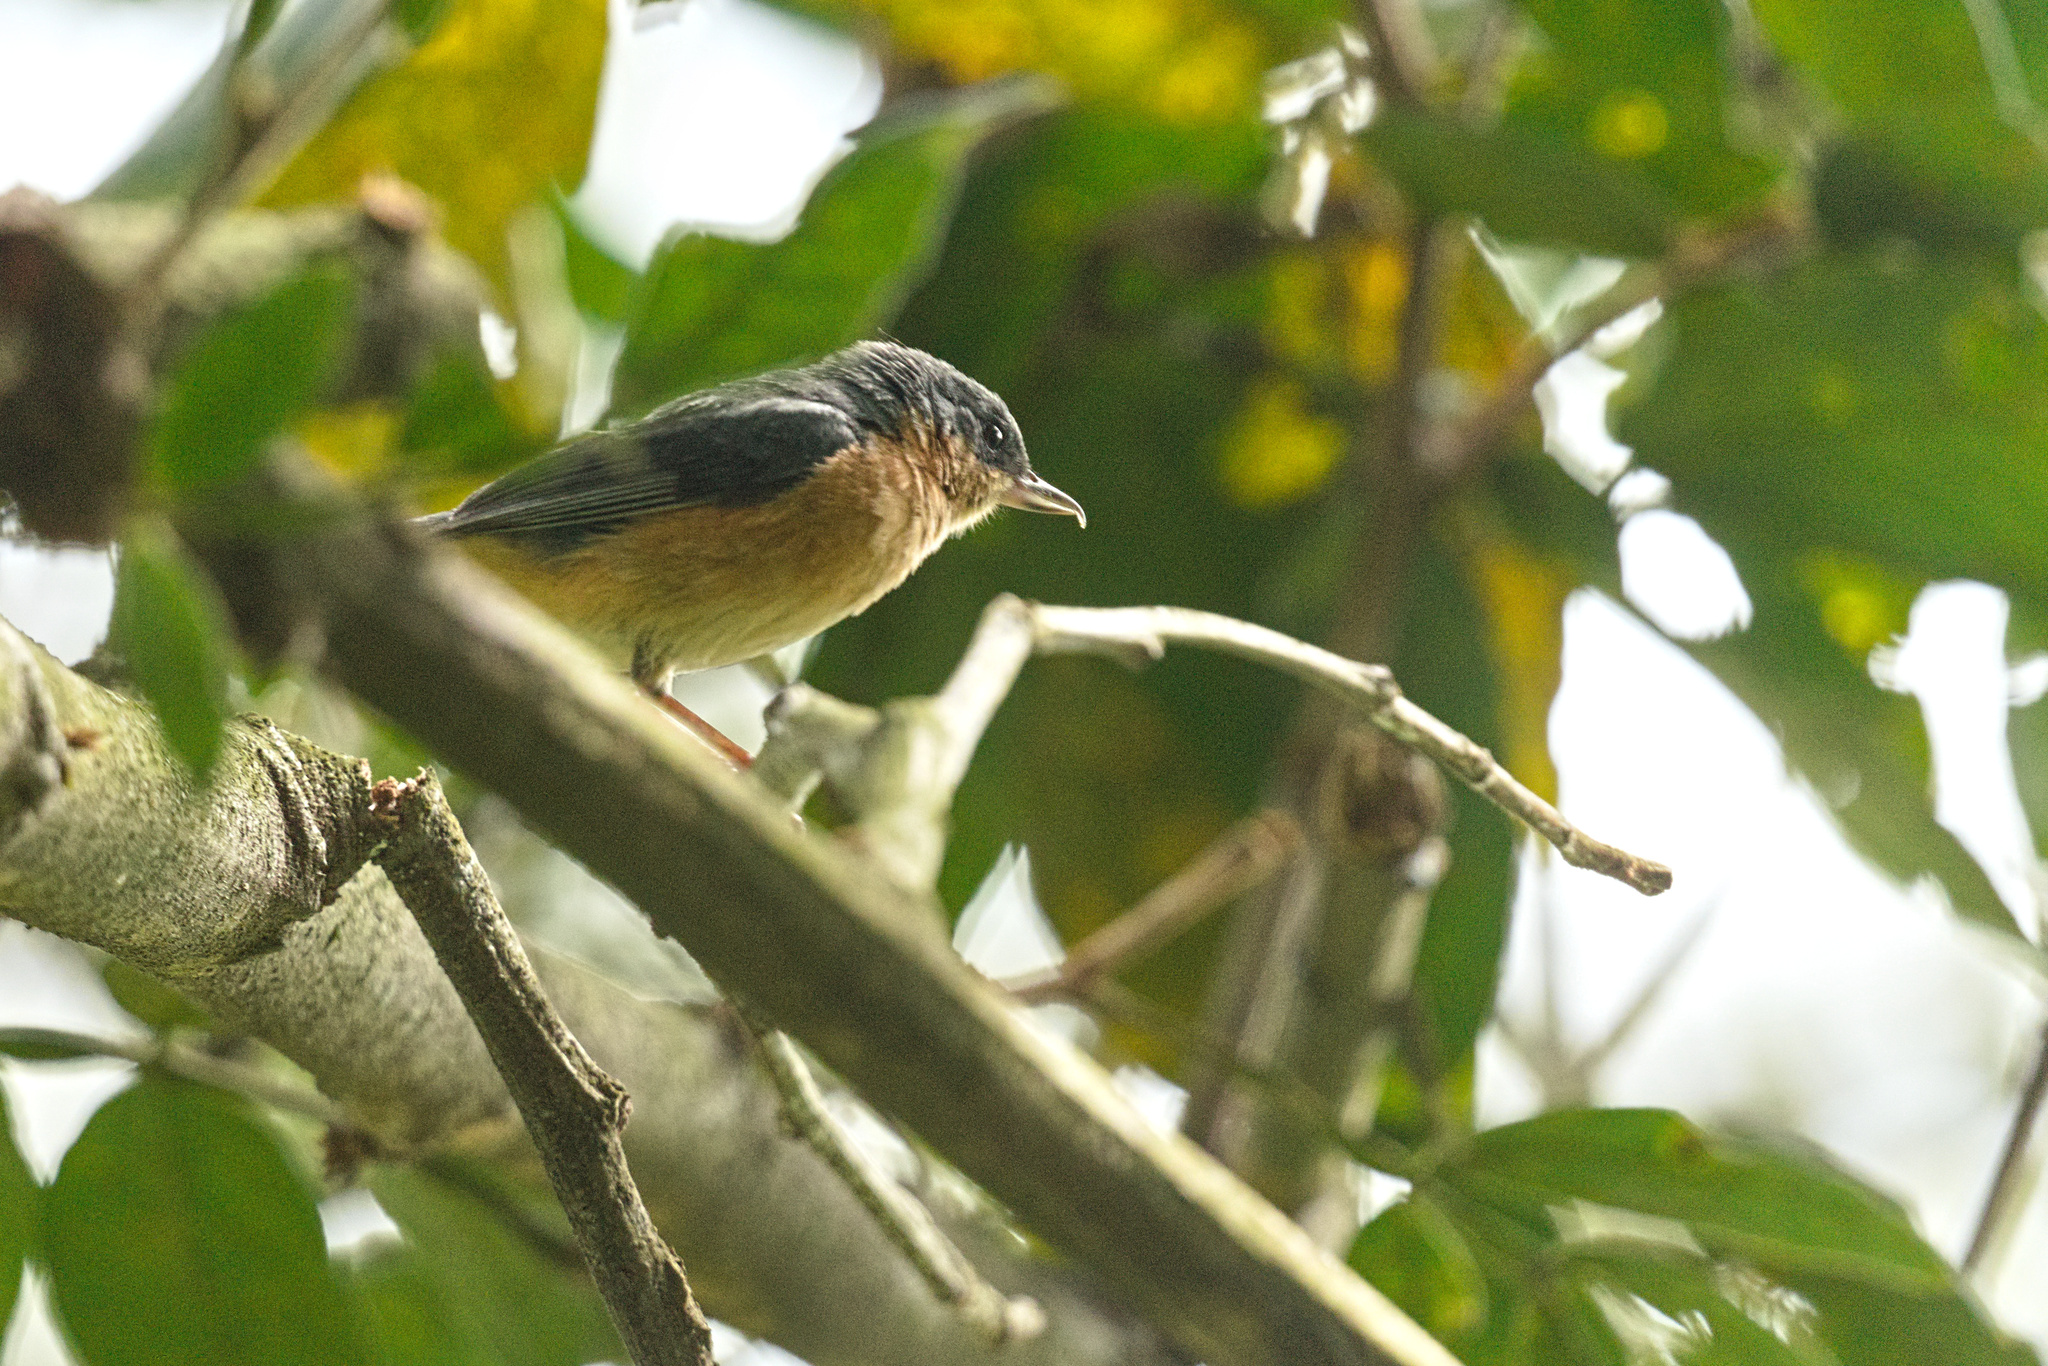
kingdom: Animalia
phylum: Chordata
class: Aves
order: Passeriformes
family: Thraupidae
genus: Diglossa
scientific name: Diglossa sittoides
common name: Rusty flowerpiercer
